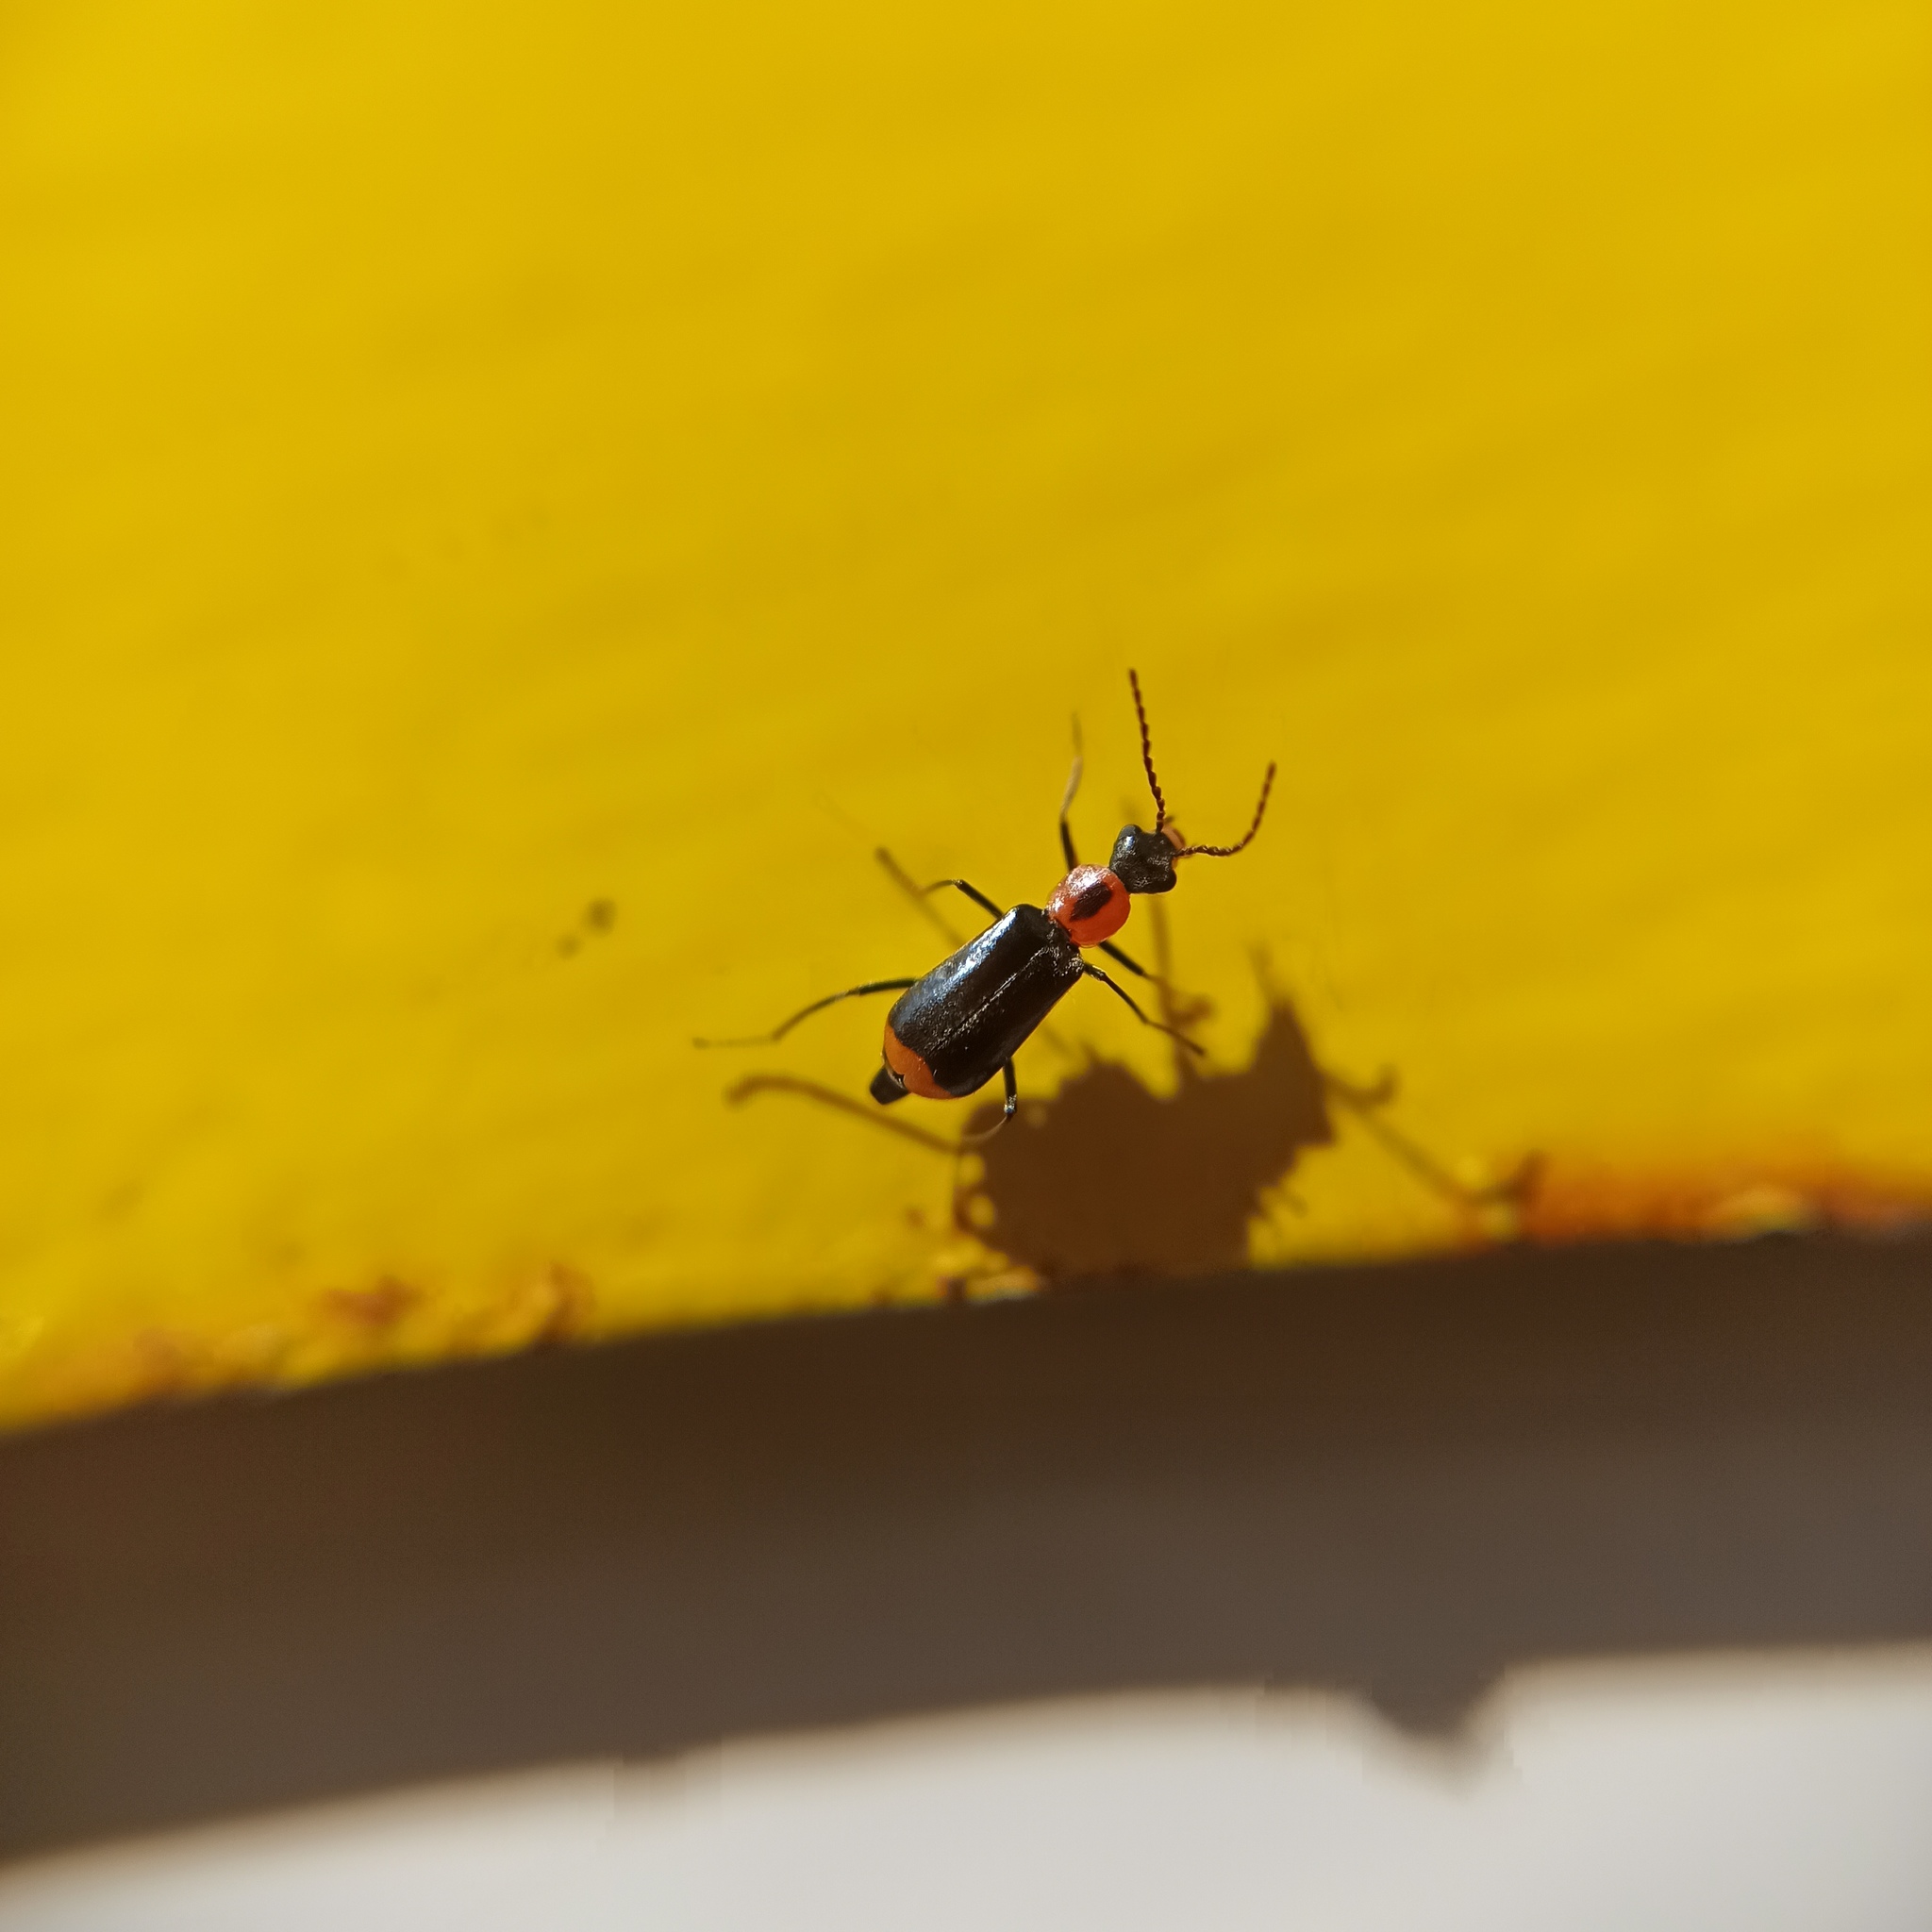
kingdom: Animalia
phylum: Arthropoda
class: Insecta
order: Coleoptera
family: Malachiidae
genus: Attalus
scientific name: Attalus minimus
